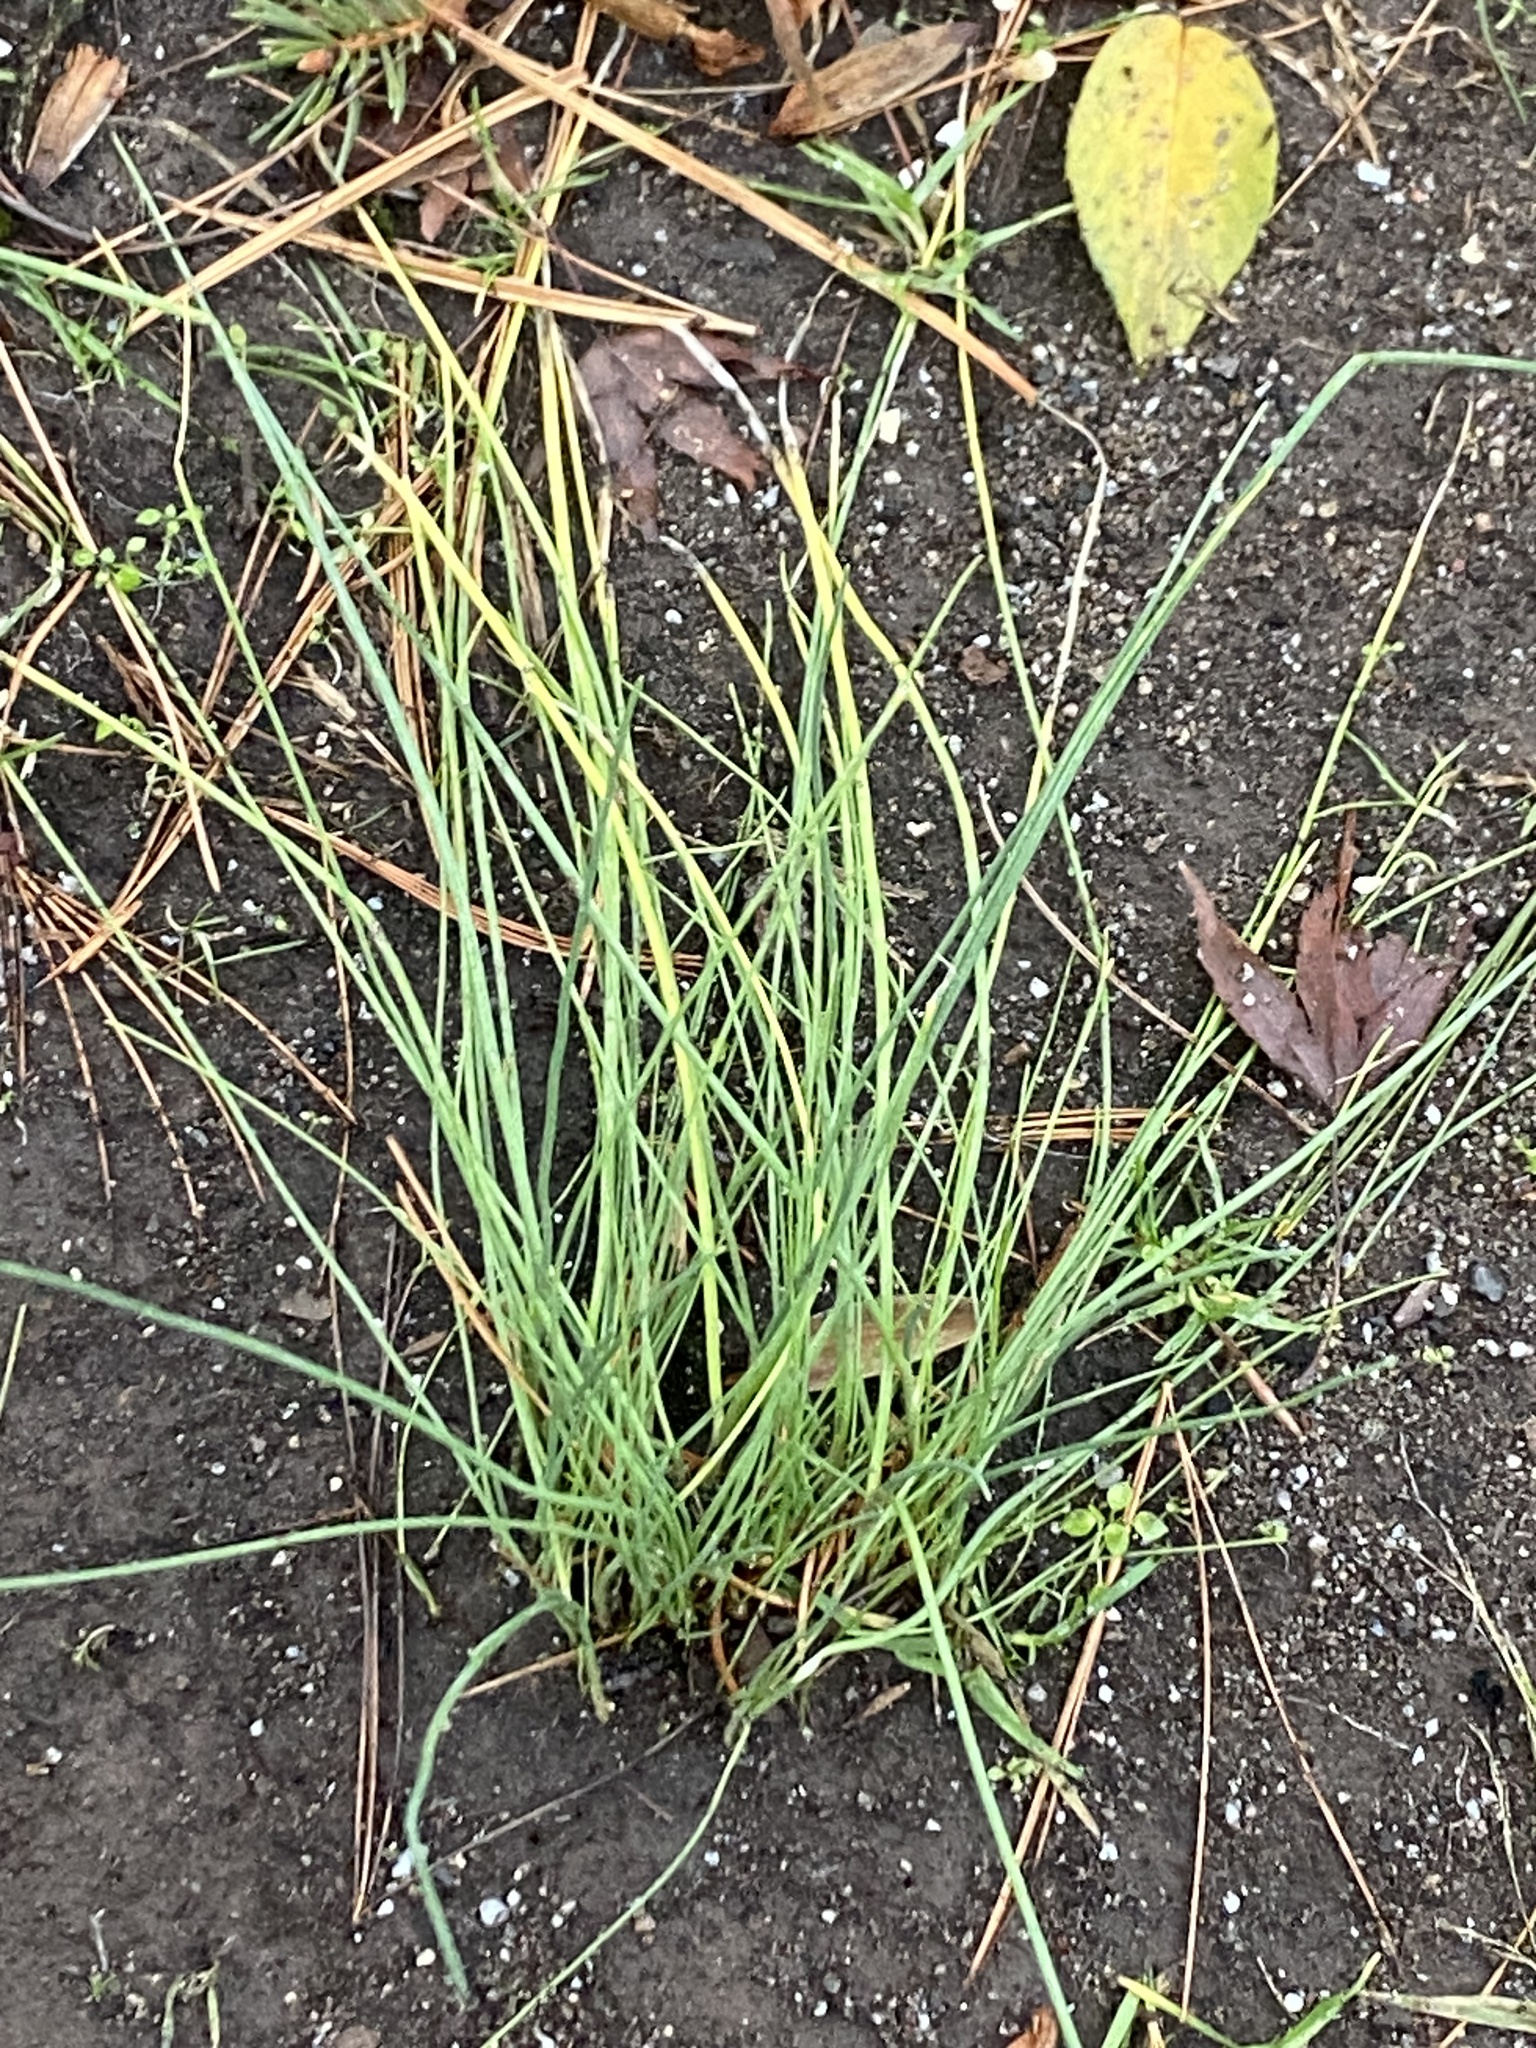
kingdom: Plantae
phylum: Tracheophyta
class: Liliopsida
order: Asparagales
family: Amaryllidaceae
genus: Allium
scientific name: Allium vineale
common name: Crow garlic
